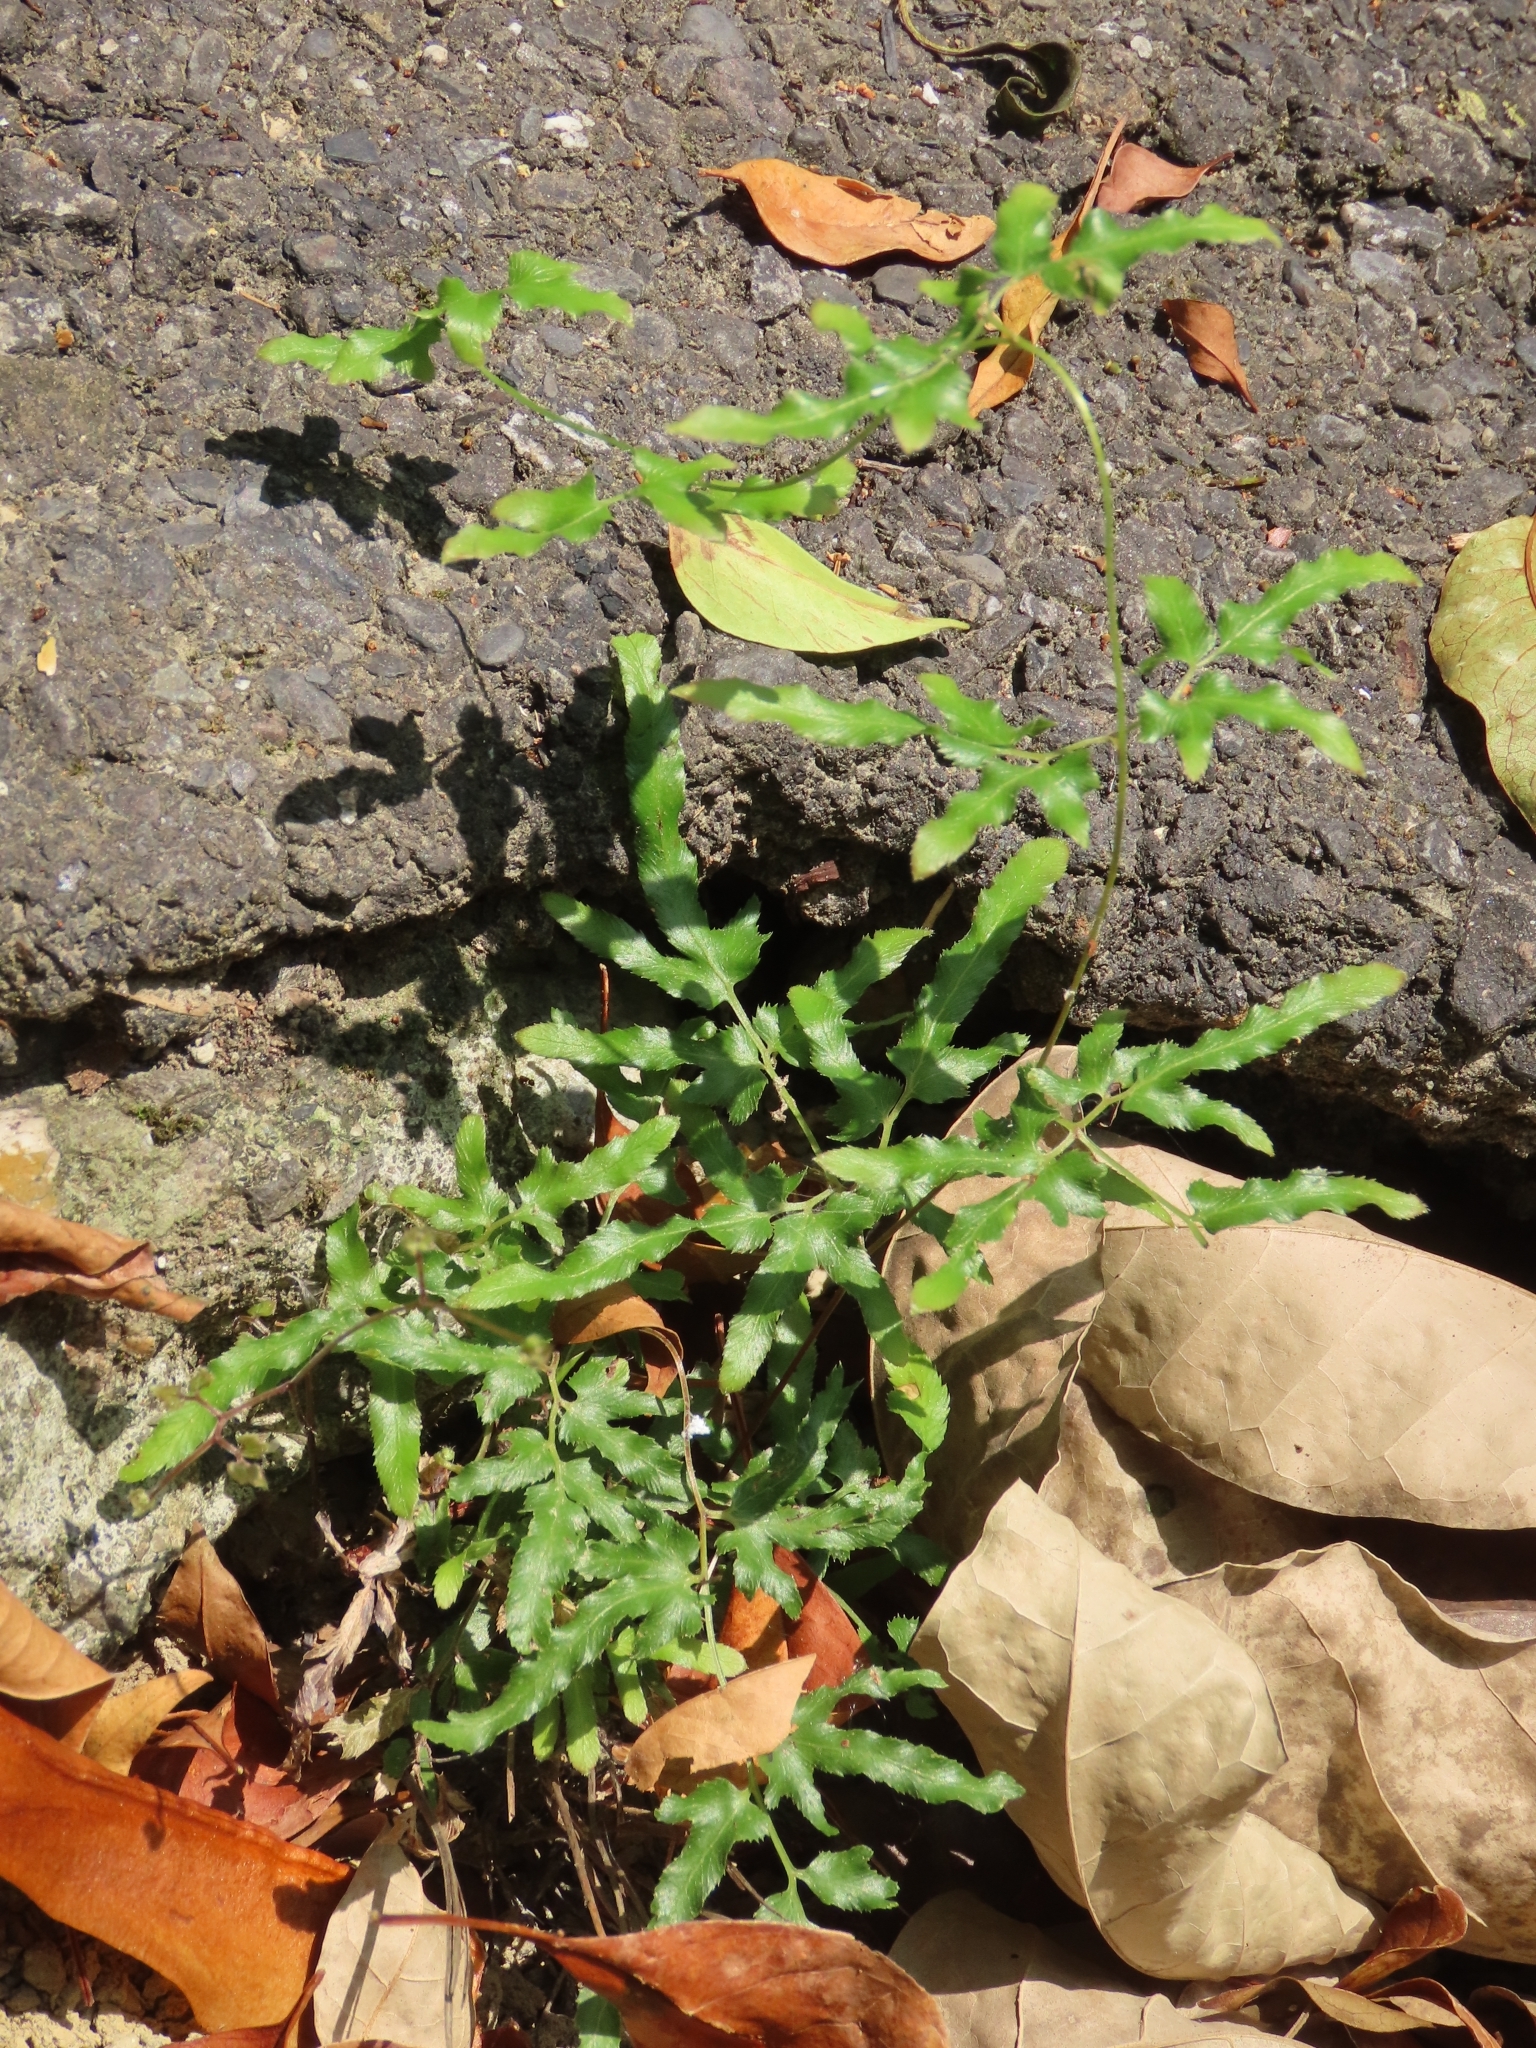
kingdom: Plantae
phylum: Tracheophyta
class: Polypodiopsida
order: Schizaeales
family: Lygodiaceae
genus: Lygodium
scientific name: Lygodium japonicum
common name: Japanese climbing fern
